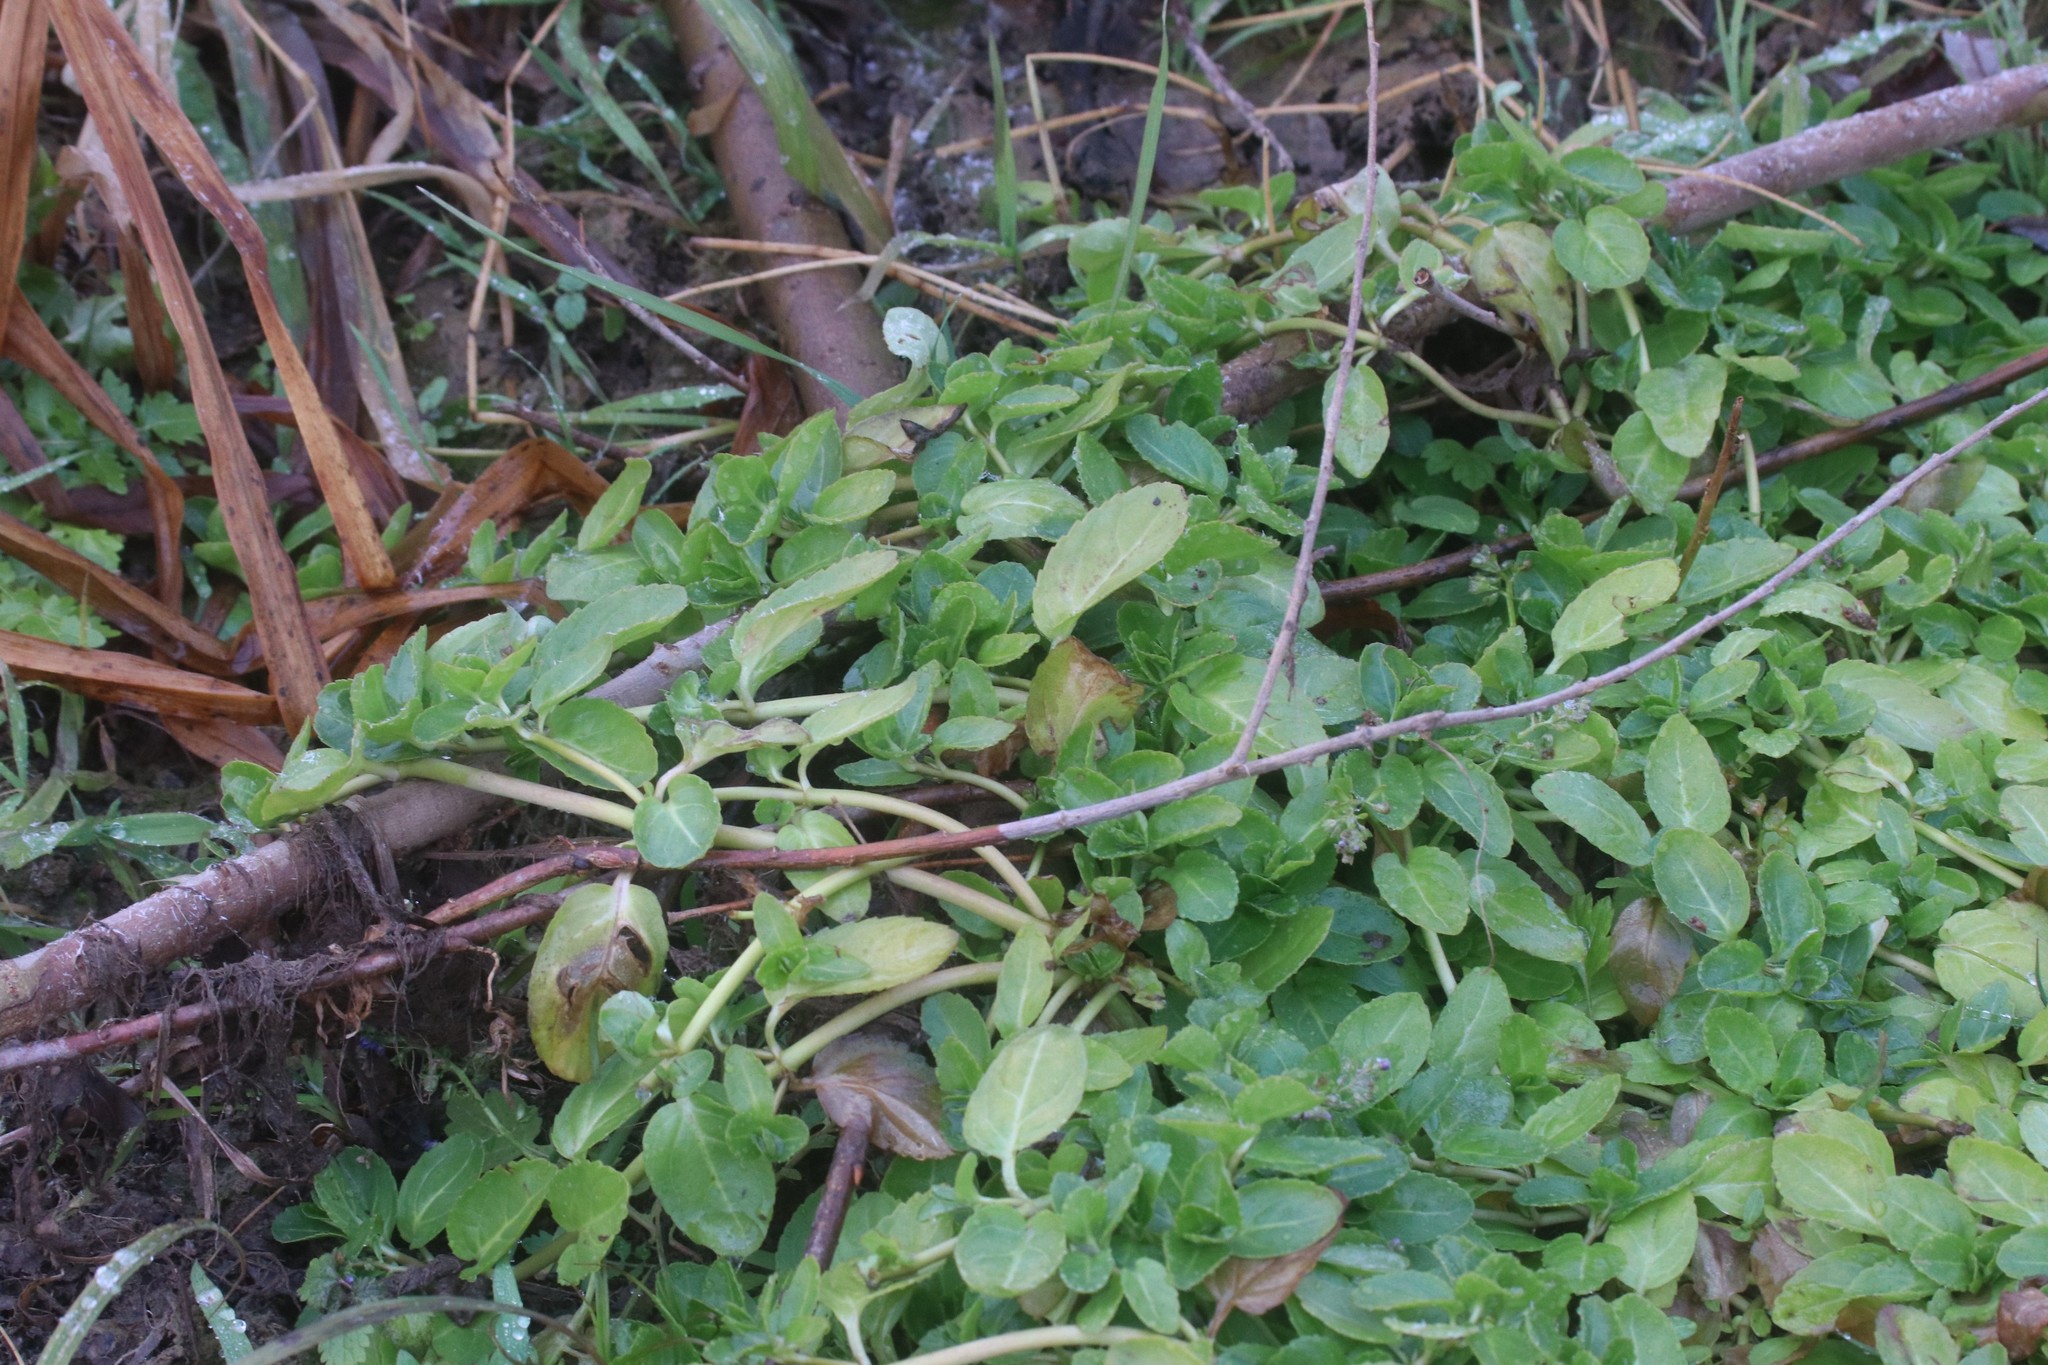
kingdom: Plantae
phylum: Tracheophyta
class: Magnoliopsida
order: Lamiales
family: Plantaginaceae
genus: Veronica
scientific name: Veronica beccabunga
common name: Brooklime
